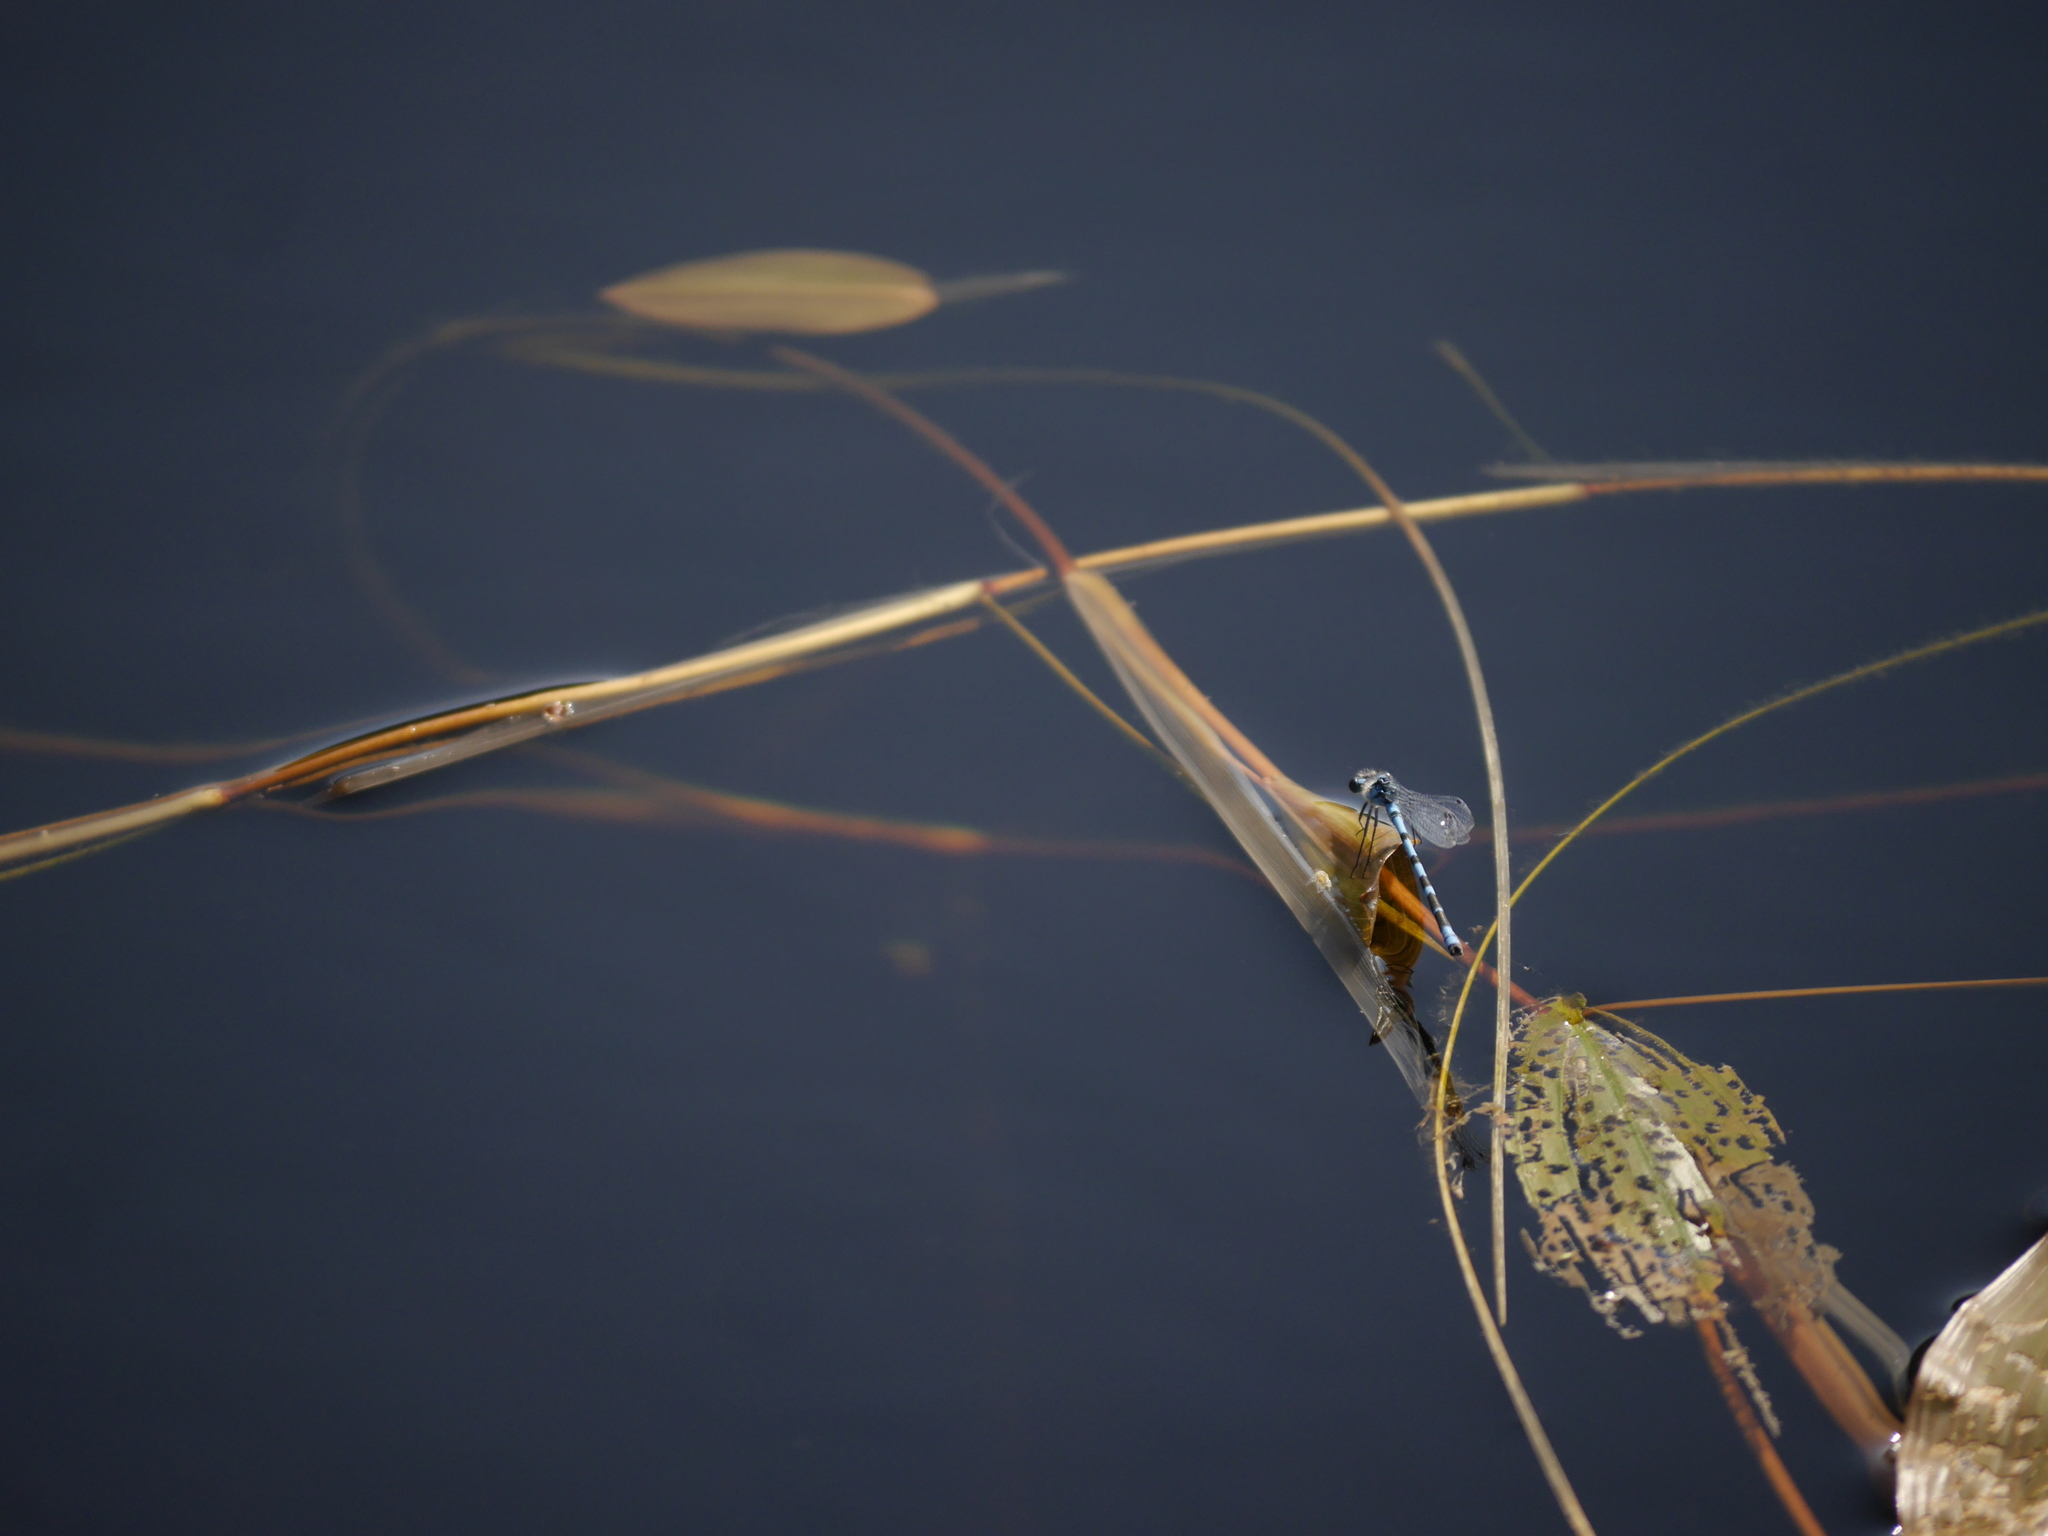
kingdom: Animalia
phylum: Arthropoda
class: Insecta
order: Odonata
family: Coenagrionidae
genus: Enallagma
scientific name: Enallagma cyathigerum
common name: Common blue damselfly
